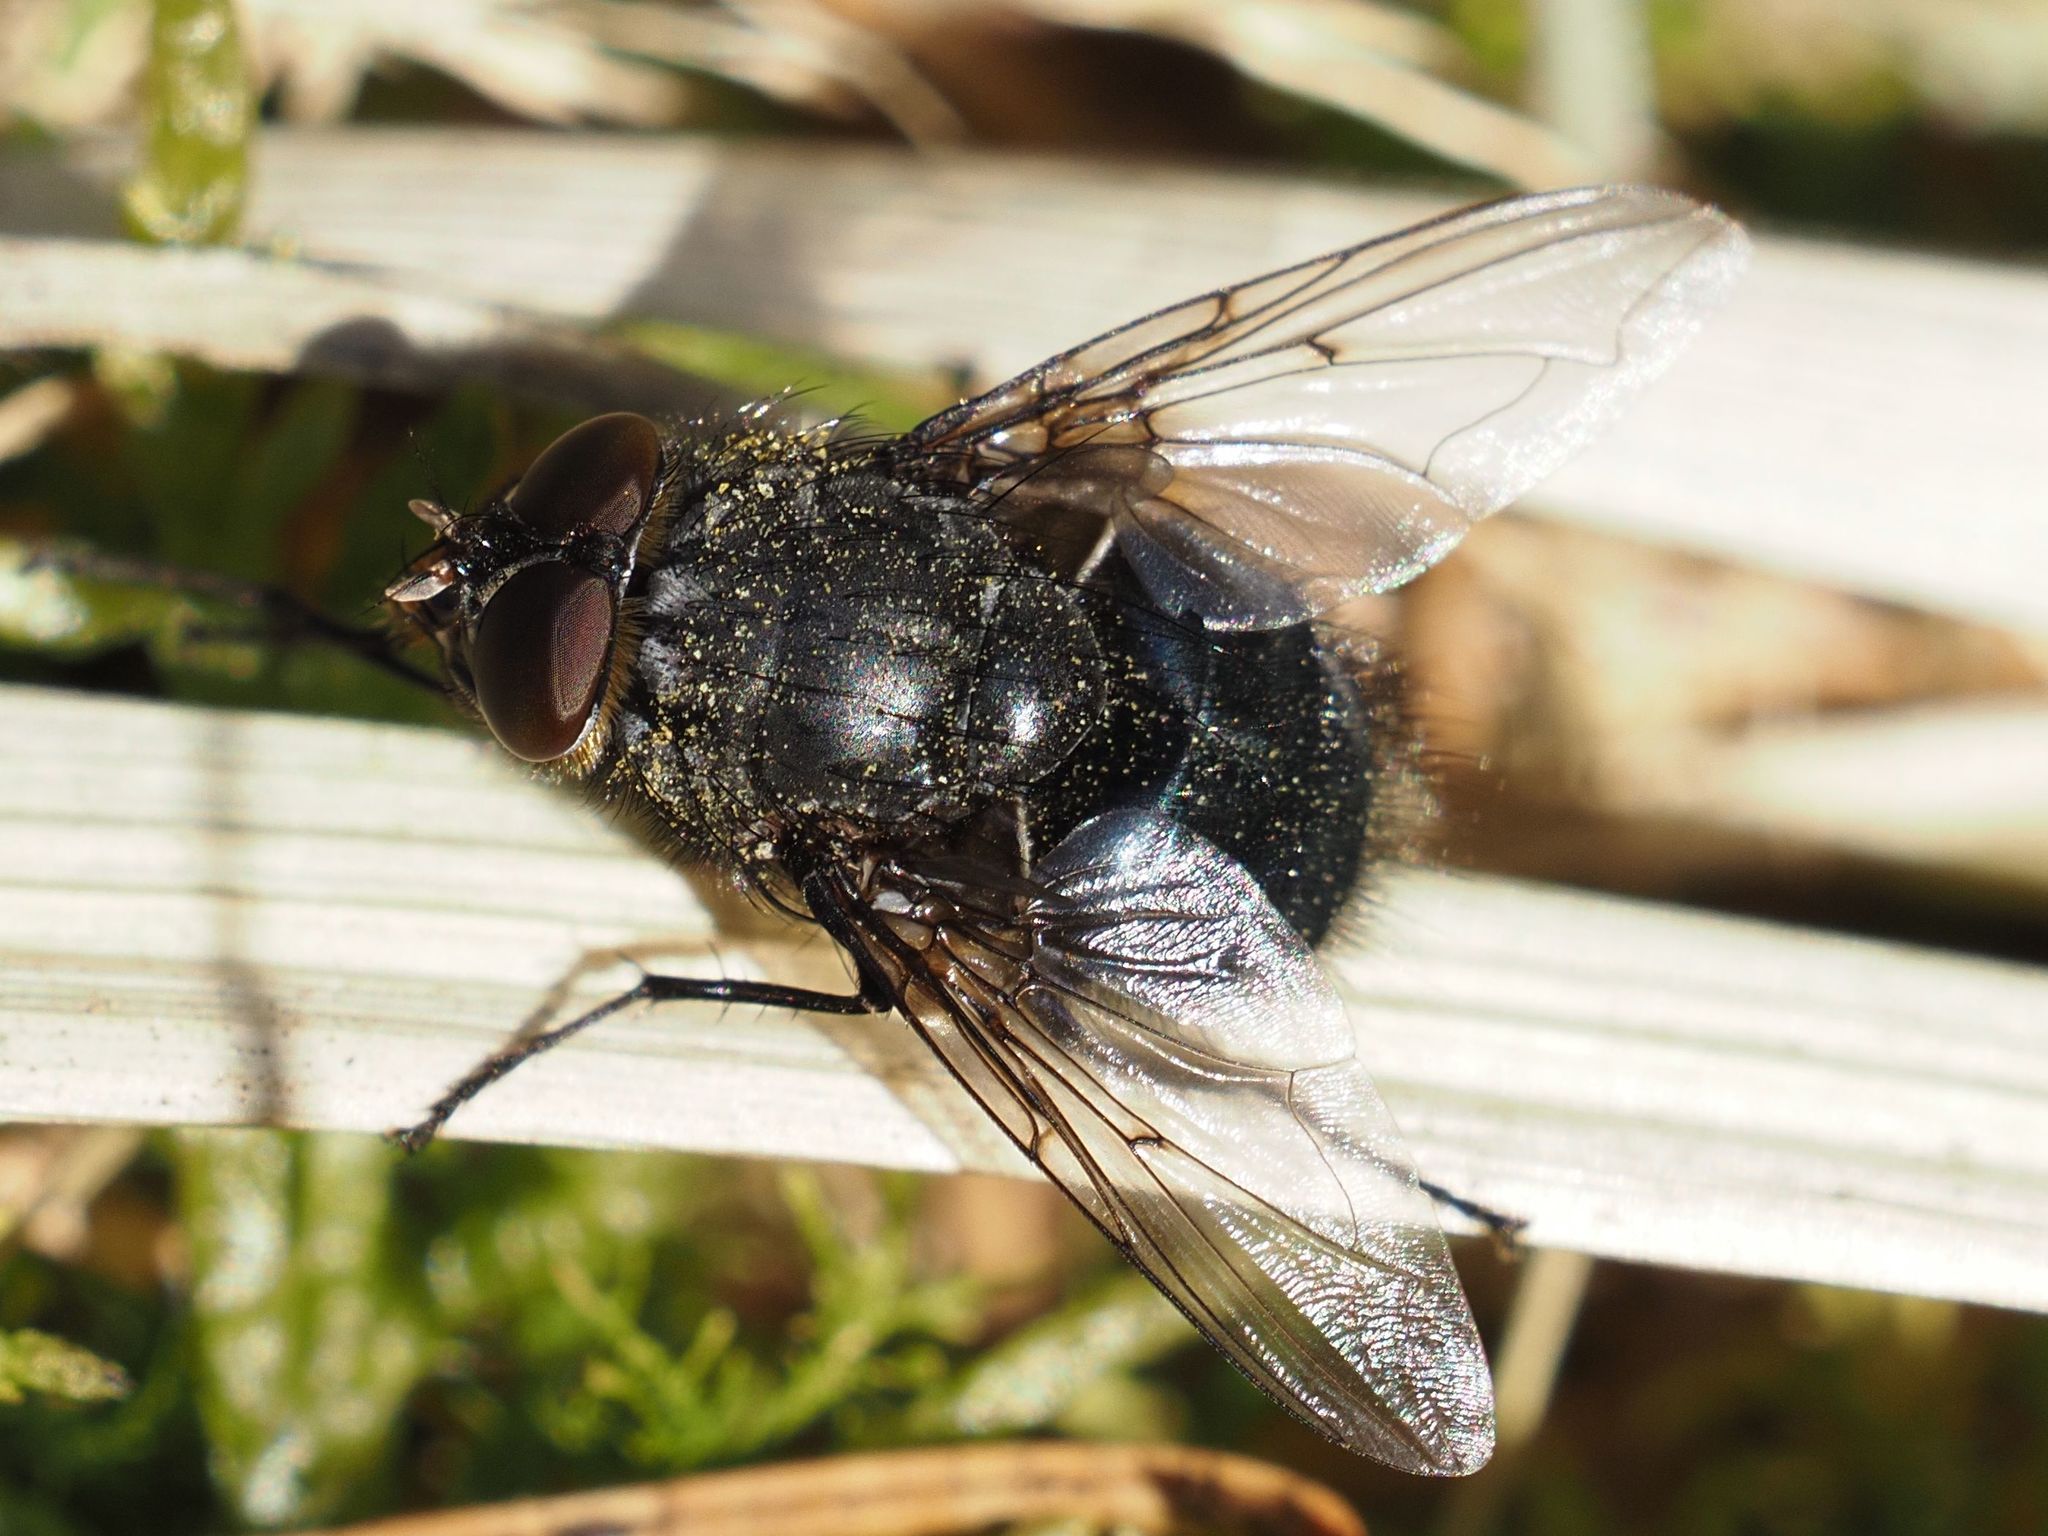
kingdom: Animalia
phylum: Arthropoda
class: Insecta
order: Diptera
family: Calliphoridae
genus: Calliphora
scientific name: Calliphora vomitoria
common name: Blue bottle fly
